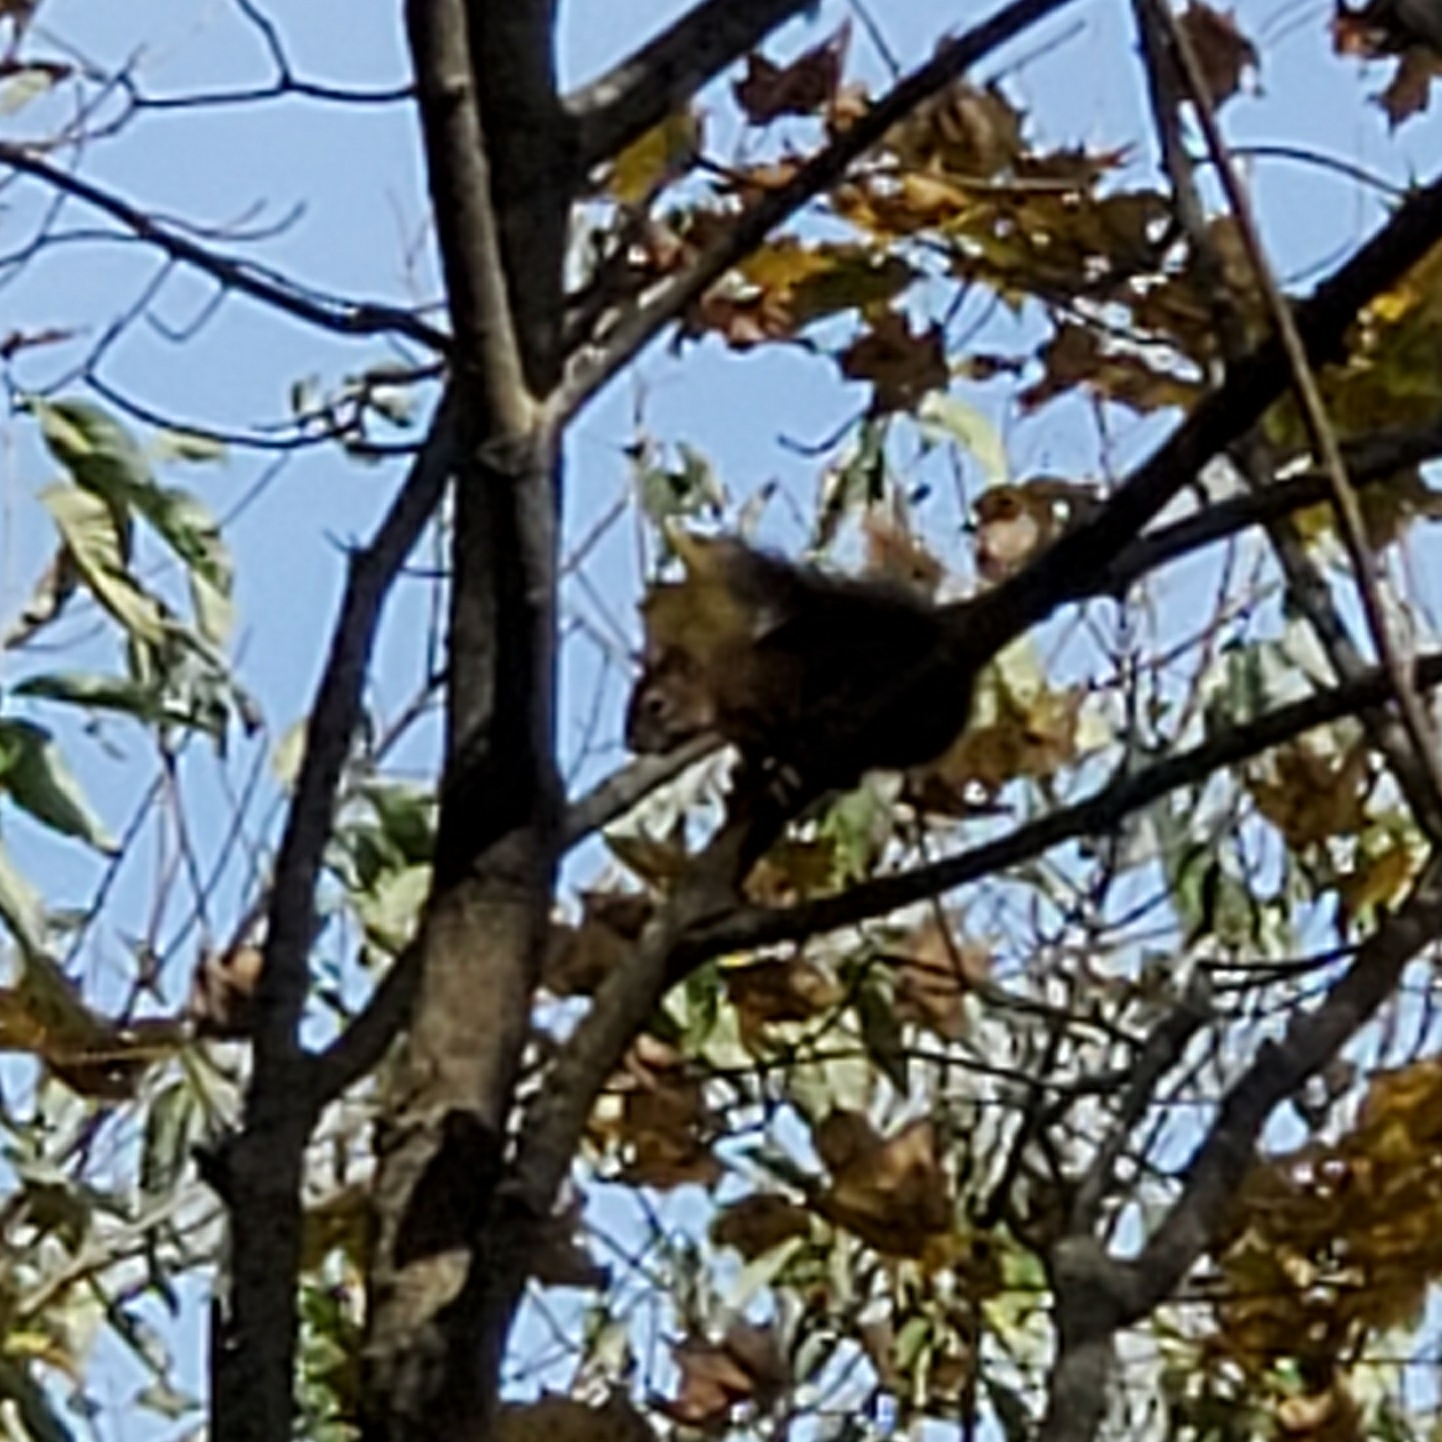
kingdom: Animalia
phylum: Chordata
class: Mammalia
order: Rodentia
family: Sciuridae
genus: Tamiasciurus
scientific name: Tamiasciurus hudsonicus
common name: Red squirrel
